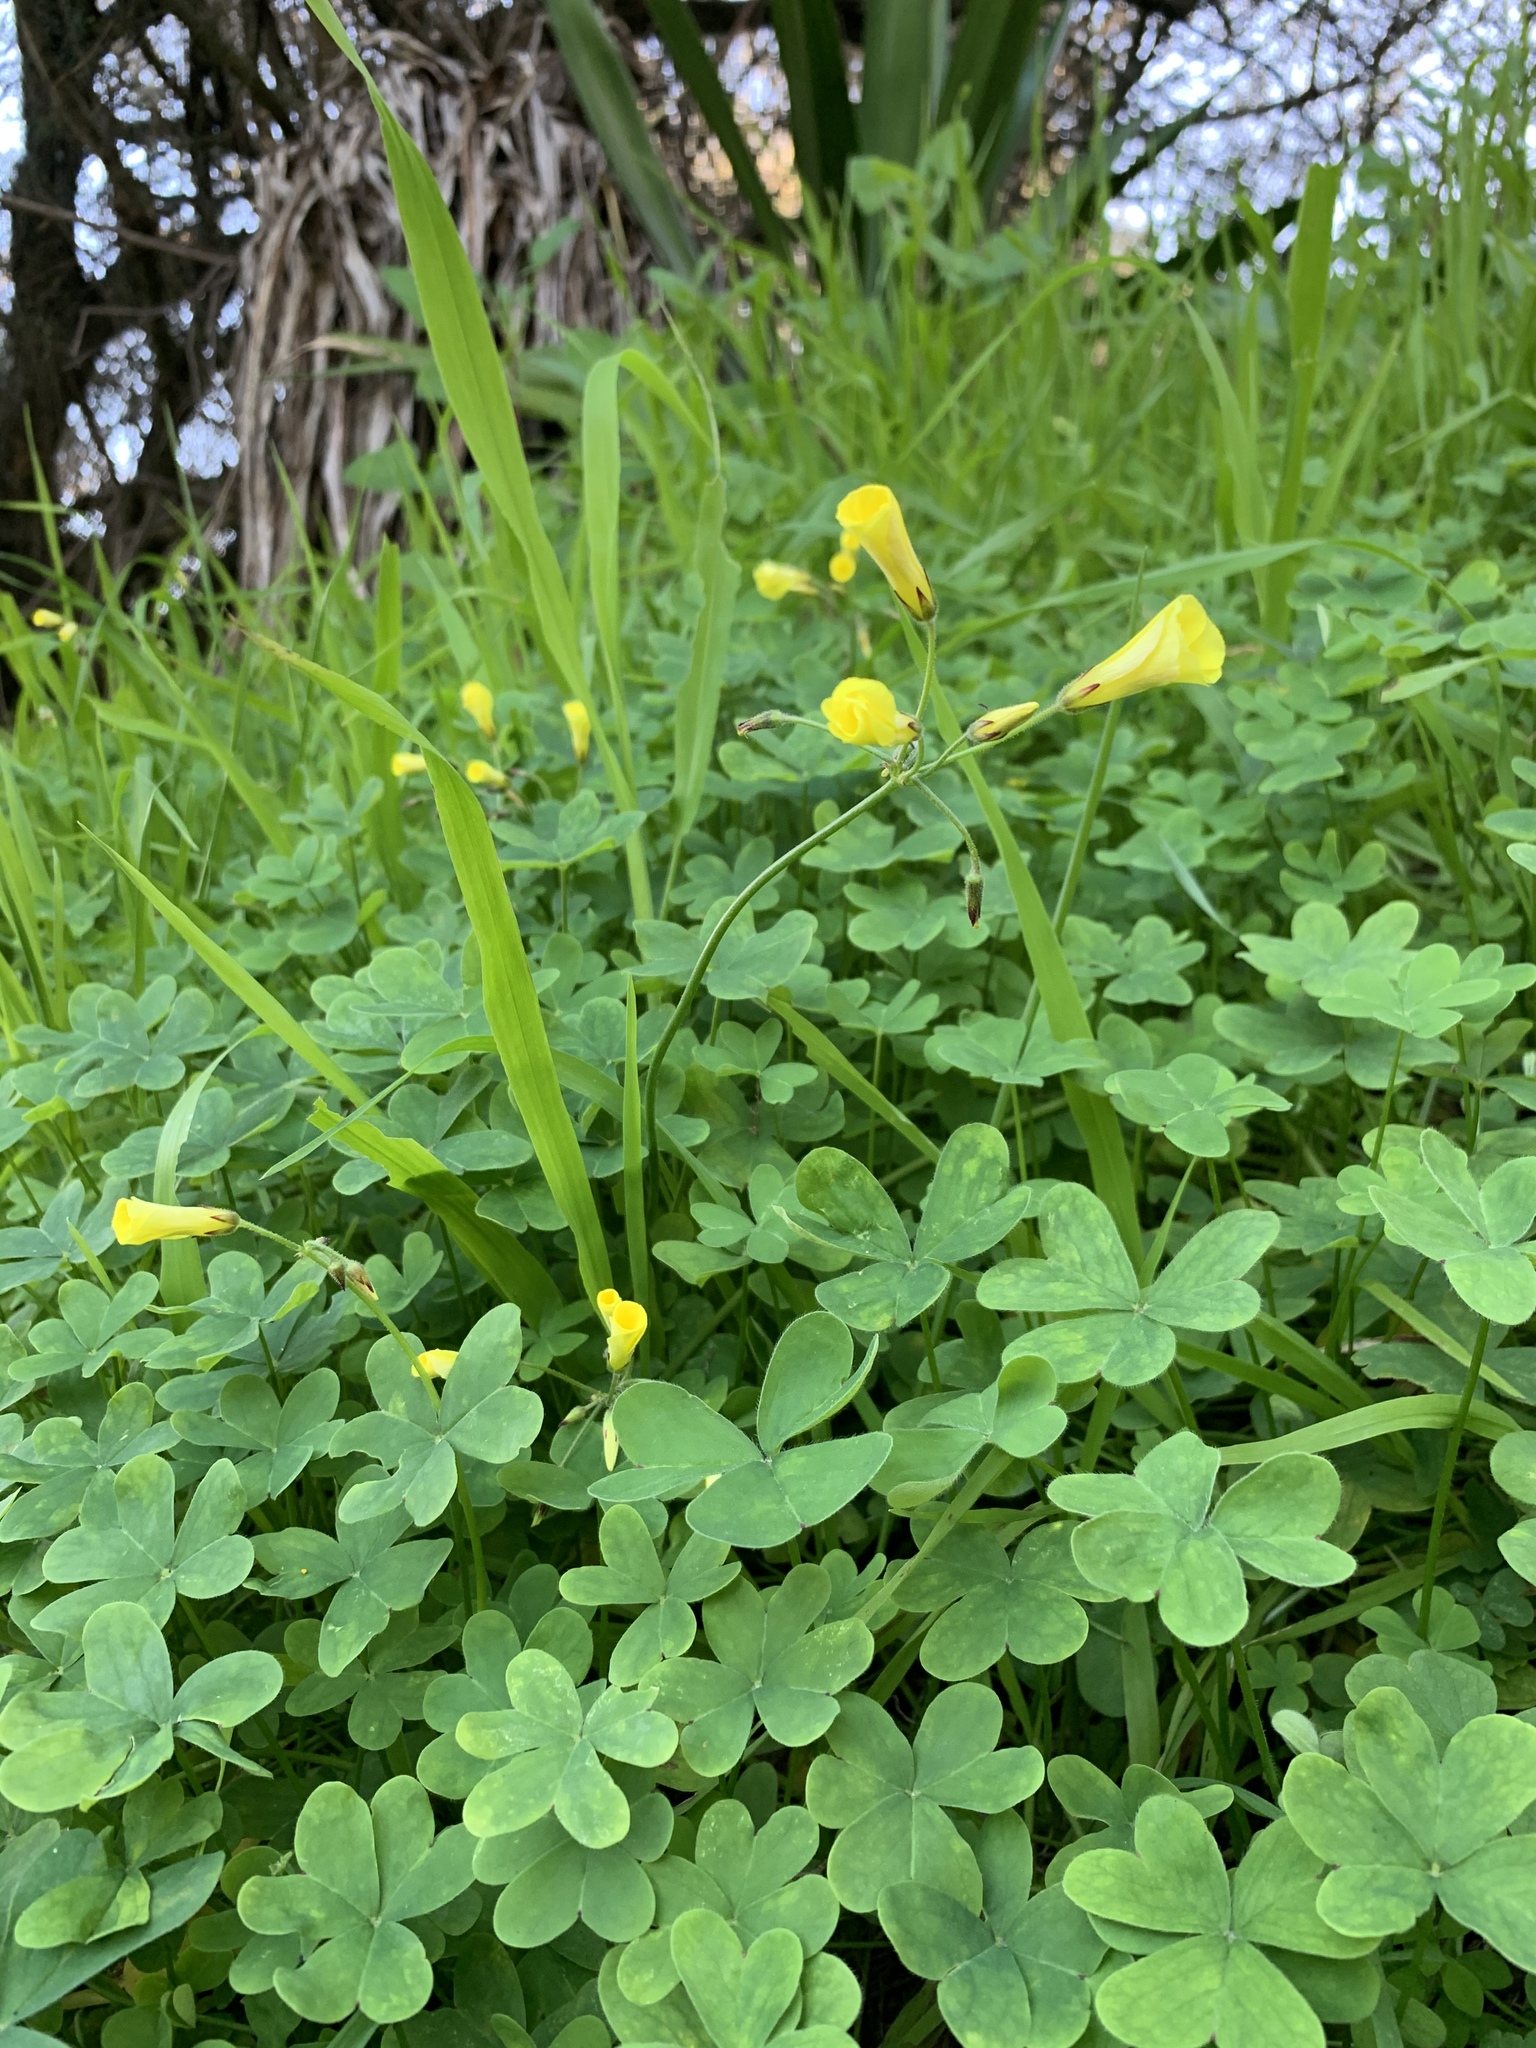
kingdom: Plantae
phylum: Tracheophyta
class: Magnoliopsida
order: Oxalidales
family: Oxalidaceae
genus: Oxalis
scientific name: Oxalis pes-caprae
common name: Bermuda-buttercup
